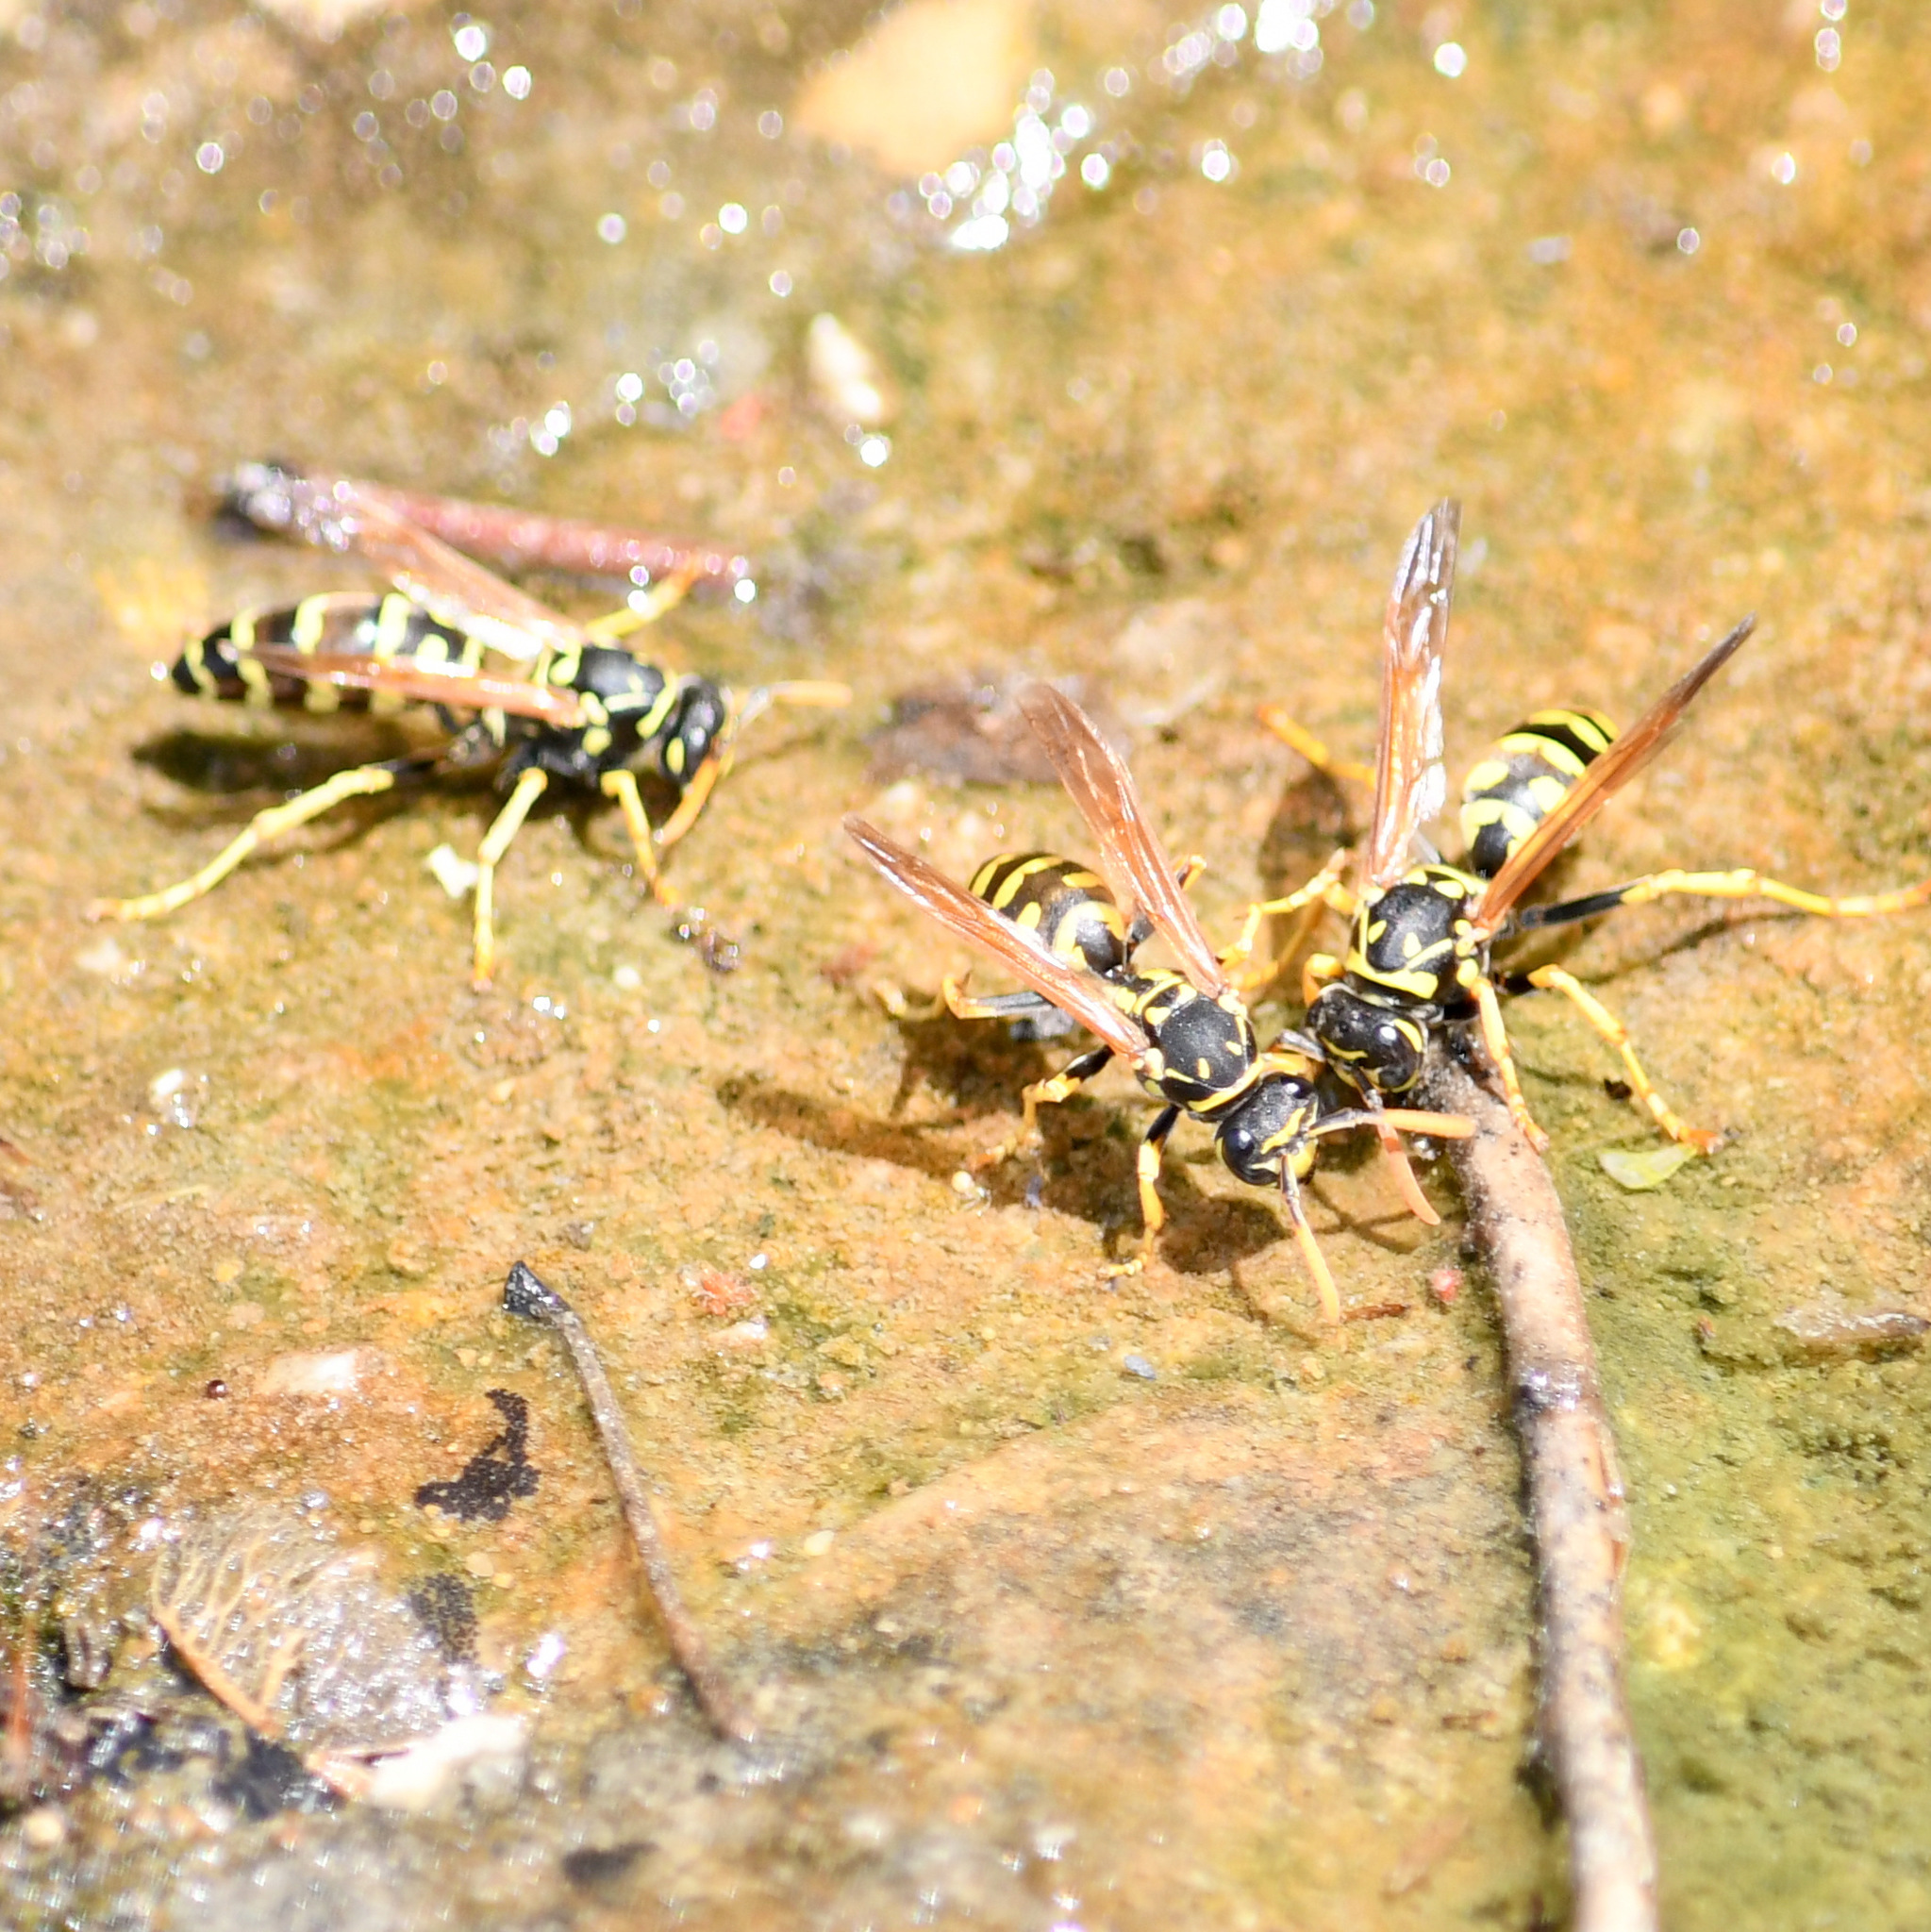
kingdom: Animalia
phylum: Arthropoda
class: Insecta
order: Hymenoptera
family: Eumenidae
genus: Polistes
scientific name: Polistes dominula
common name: Paper wasp
